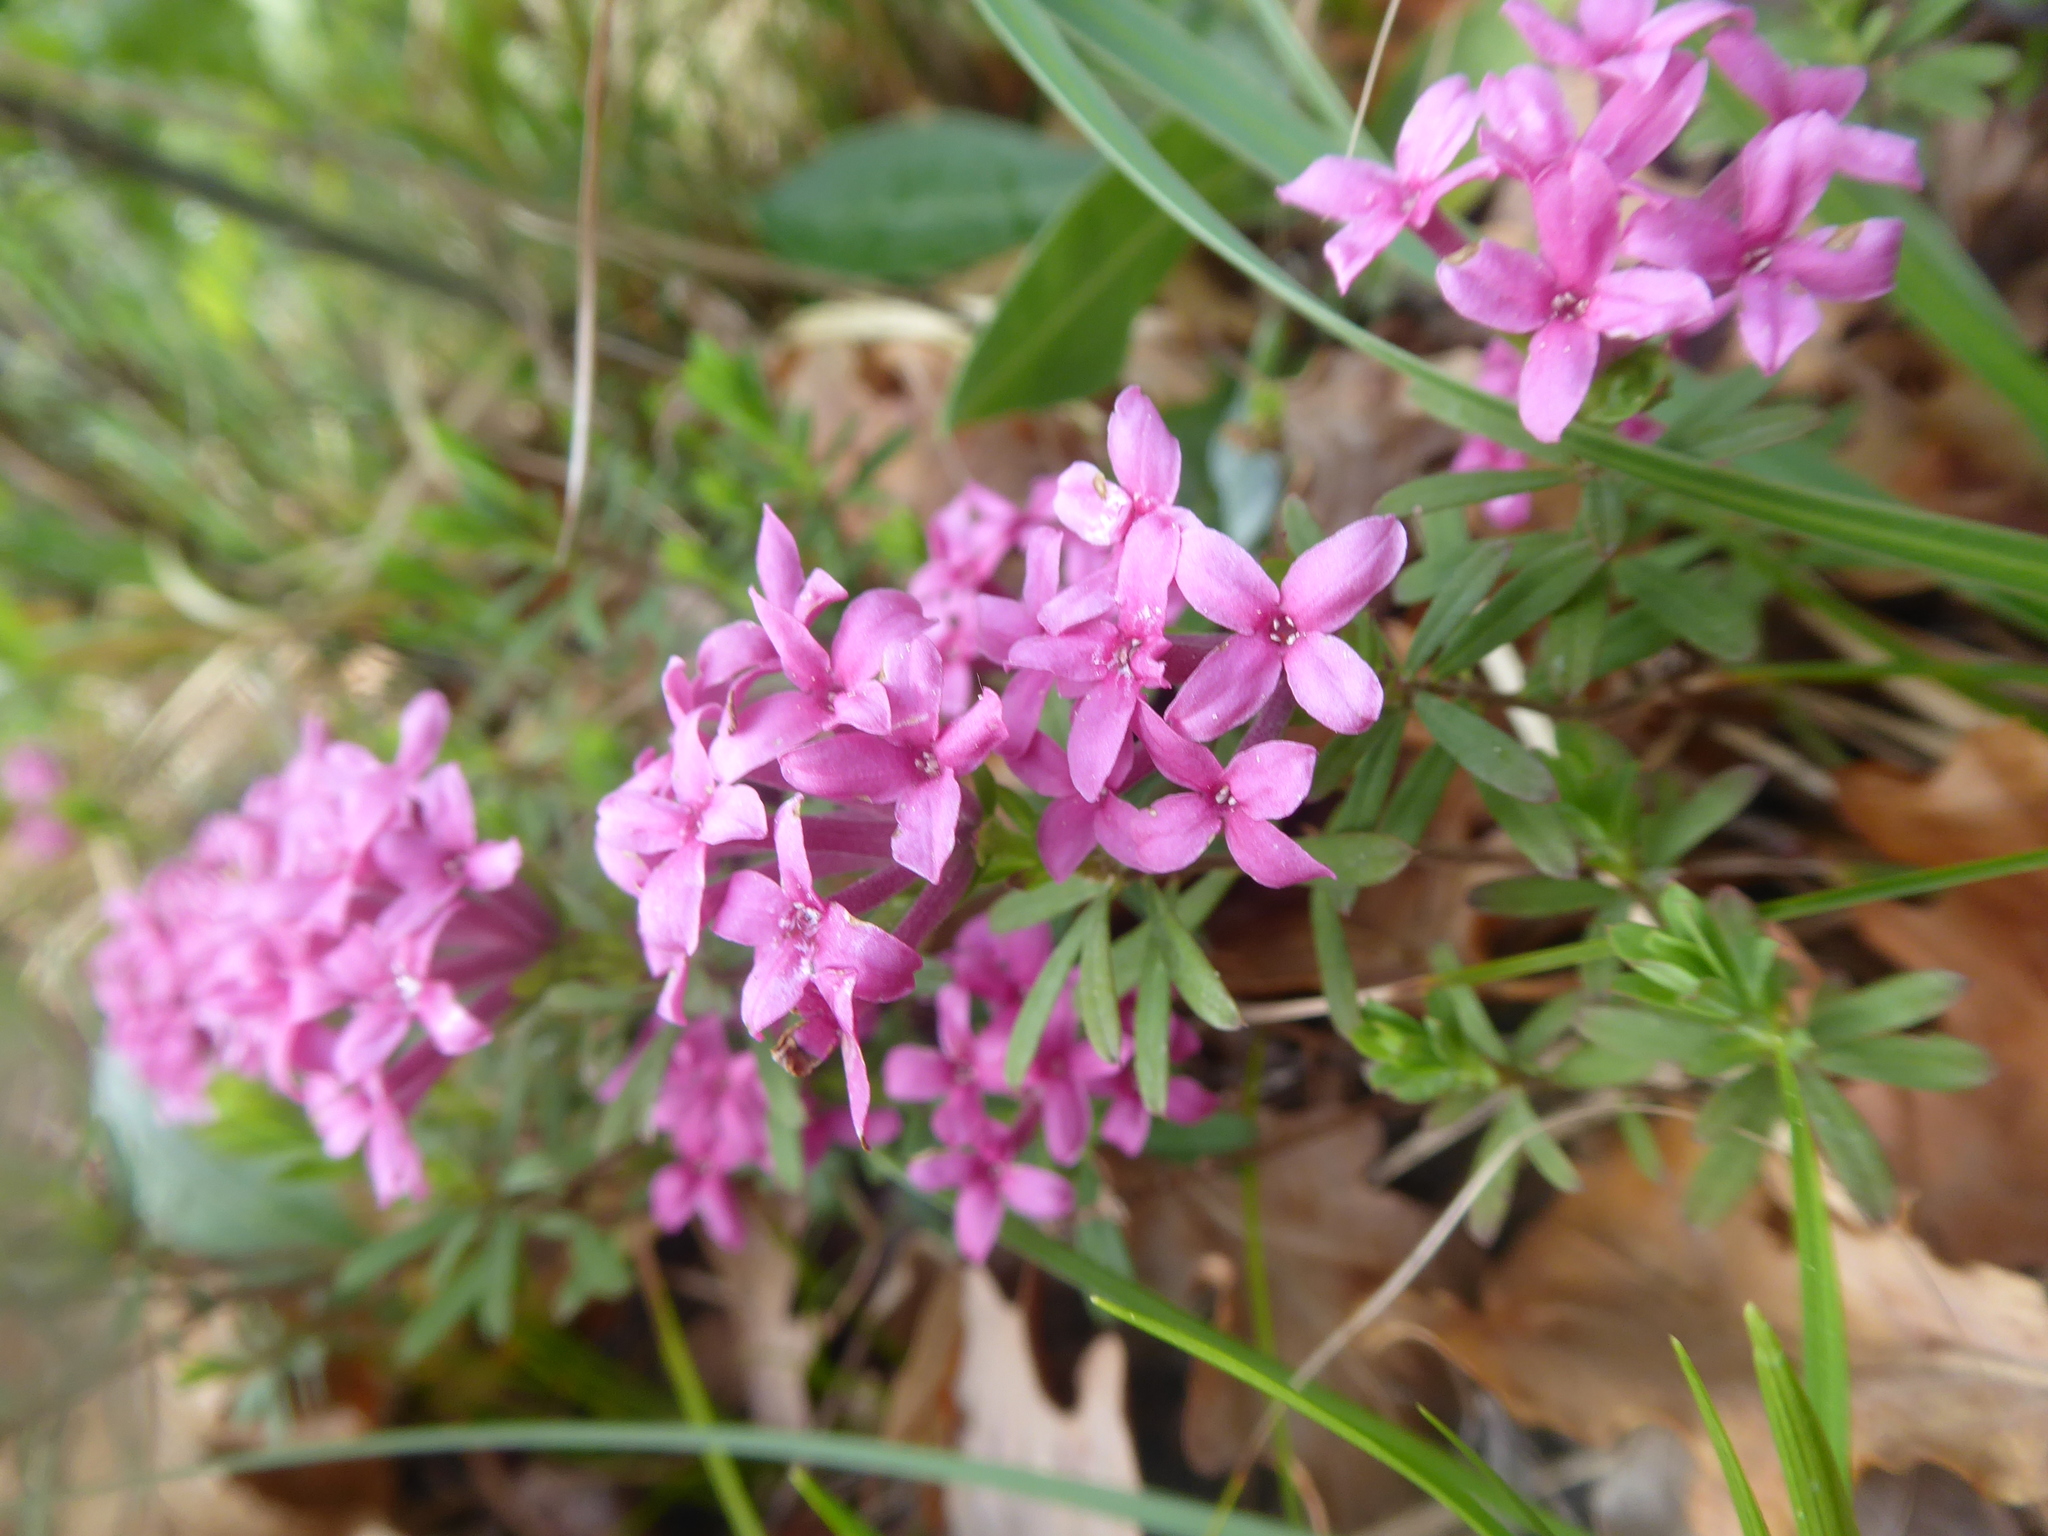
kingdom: Plantae
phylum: Tracheophyta
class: Magnoliopsida
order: Malvales
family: Thymelaeaceae
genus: Daphne
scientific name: Daphne cneorum
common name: Garland-flower
